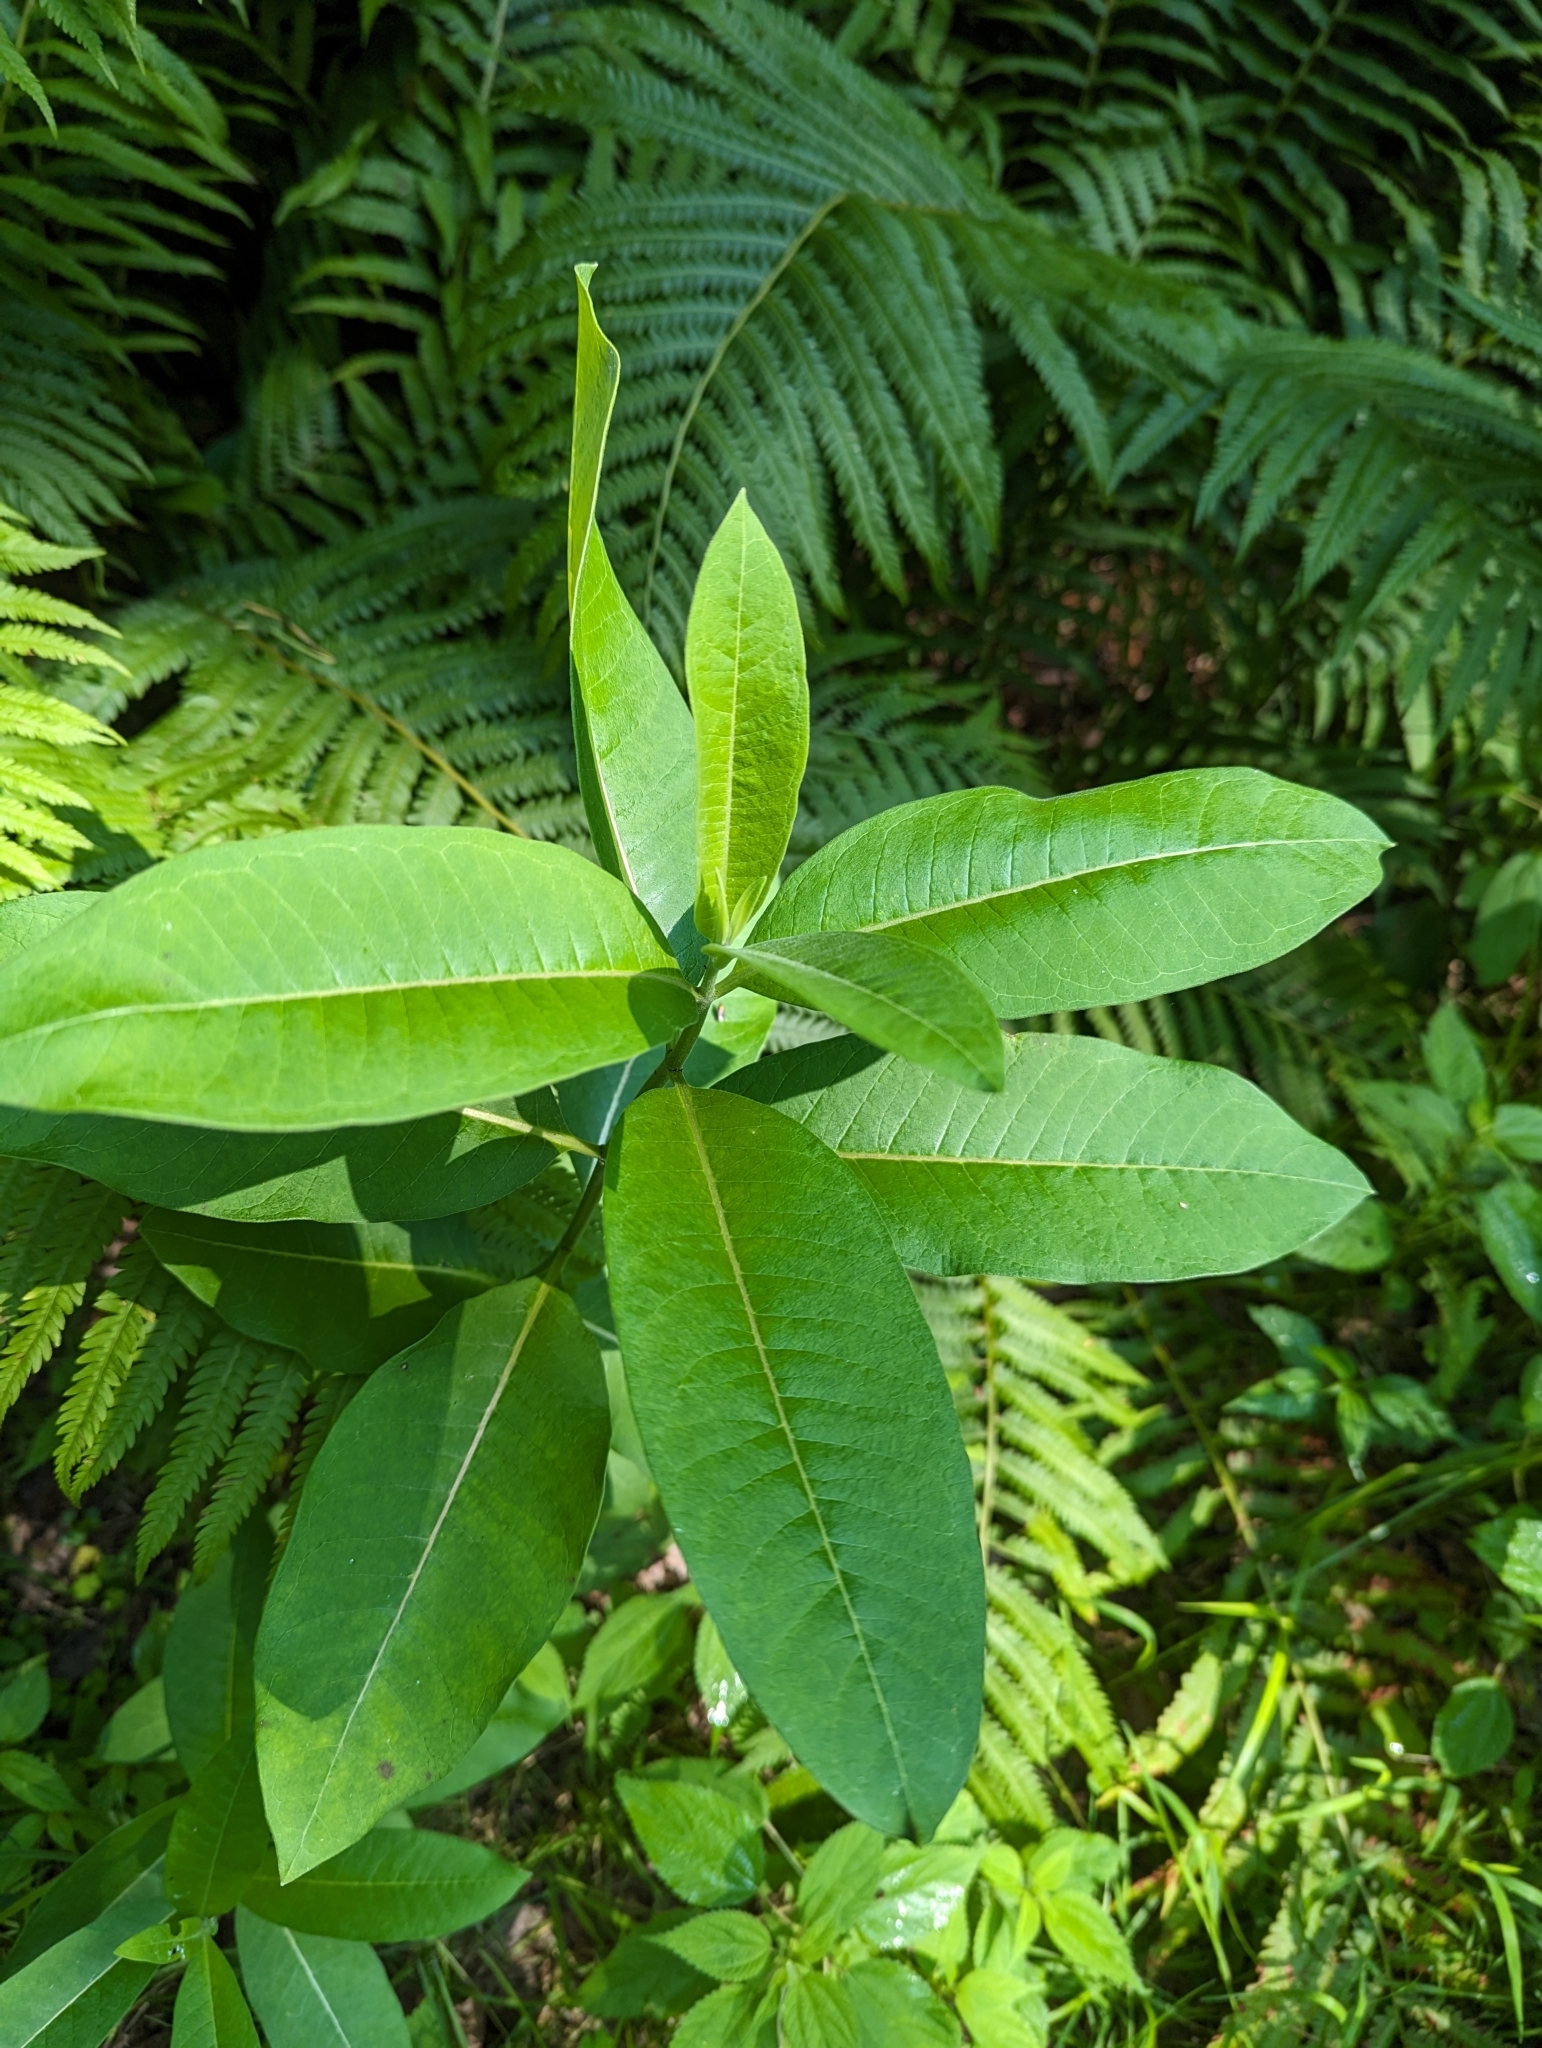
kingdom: Plantae
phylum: Tracheophyta
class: Magnoliopsida
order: Gentianales
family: Apocynaceae
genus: Asclepias
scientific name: Asclepias syriaca
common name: Common milkweed
